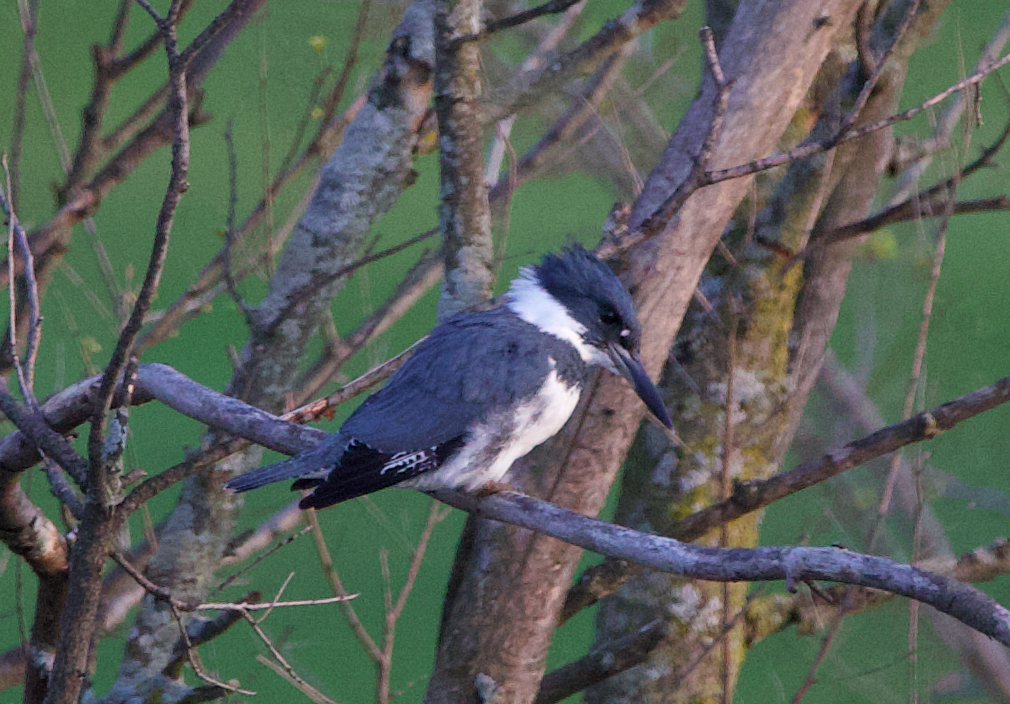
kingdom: Animalia
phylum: Chordata
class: Aves
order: Coraciiformes
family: Alcedinidae
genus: Megaceryle
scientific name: Megaceryle alcyon
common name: Belted kingfisher
